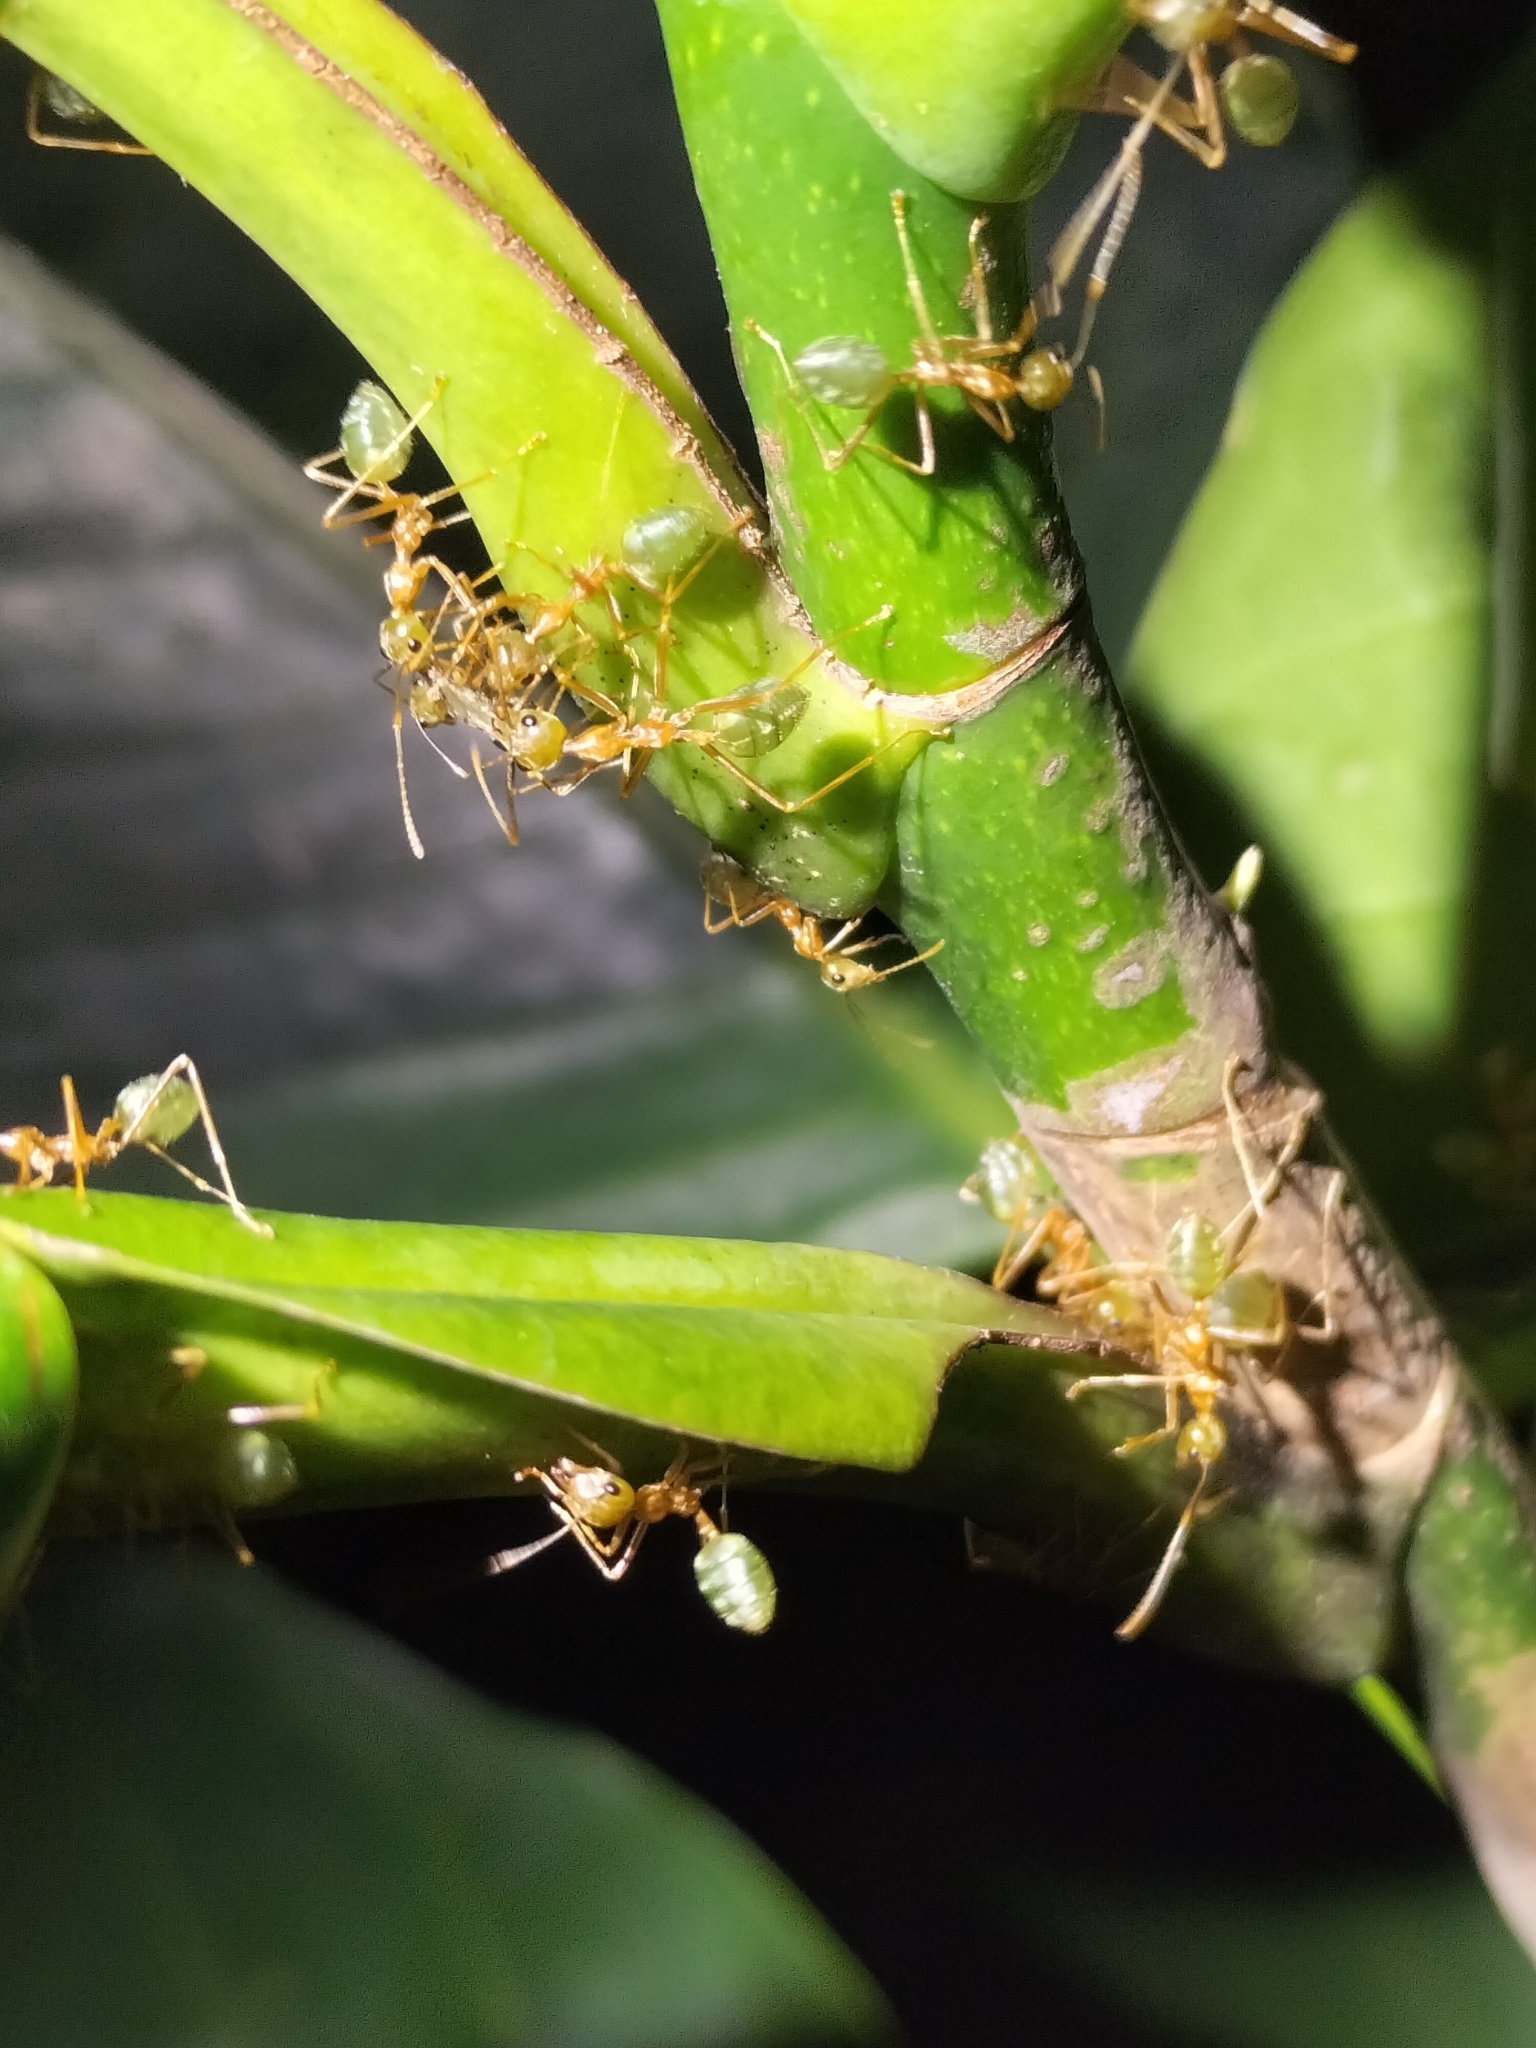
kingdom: Animalia
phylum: Arthropoda
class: Insecta
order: Hymenoptera
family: Formicidae
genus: Oecophylla
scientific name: Oecophylla smaragdina
